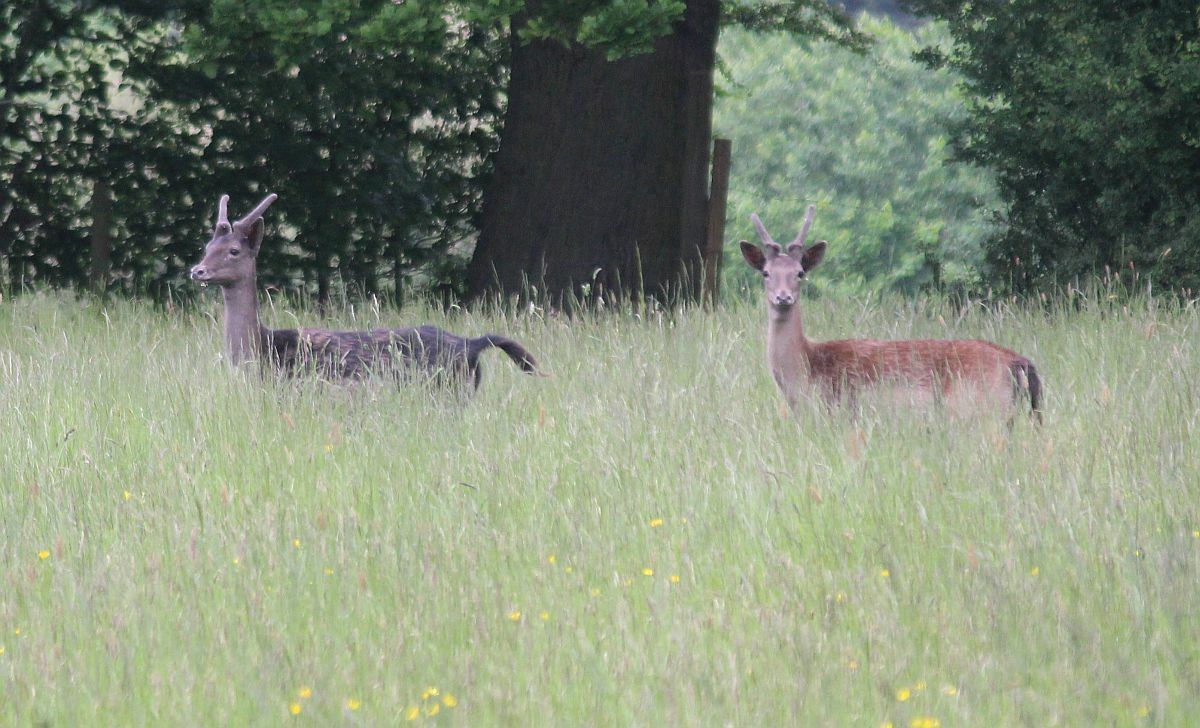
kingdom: Animalia
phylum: Chordata
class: Mammalia
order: Artiodactyla
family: Cervidae
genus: Dama
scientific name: Dama dama
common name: Fallow deer
